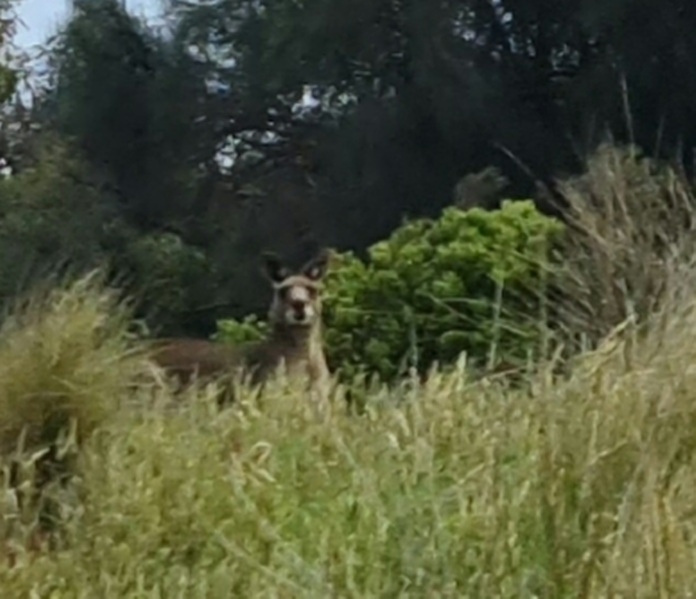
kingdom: Animalia
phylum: Chordata
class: Mammalia
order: Diprotodontia
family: Macropodidae
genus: Macropus
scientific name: Macropus giganteus
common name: Eastern grey kangaroo
